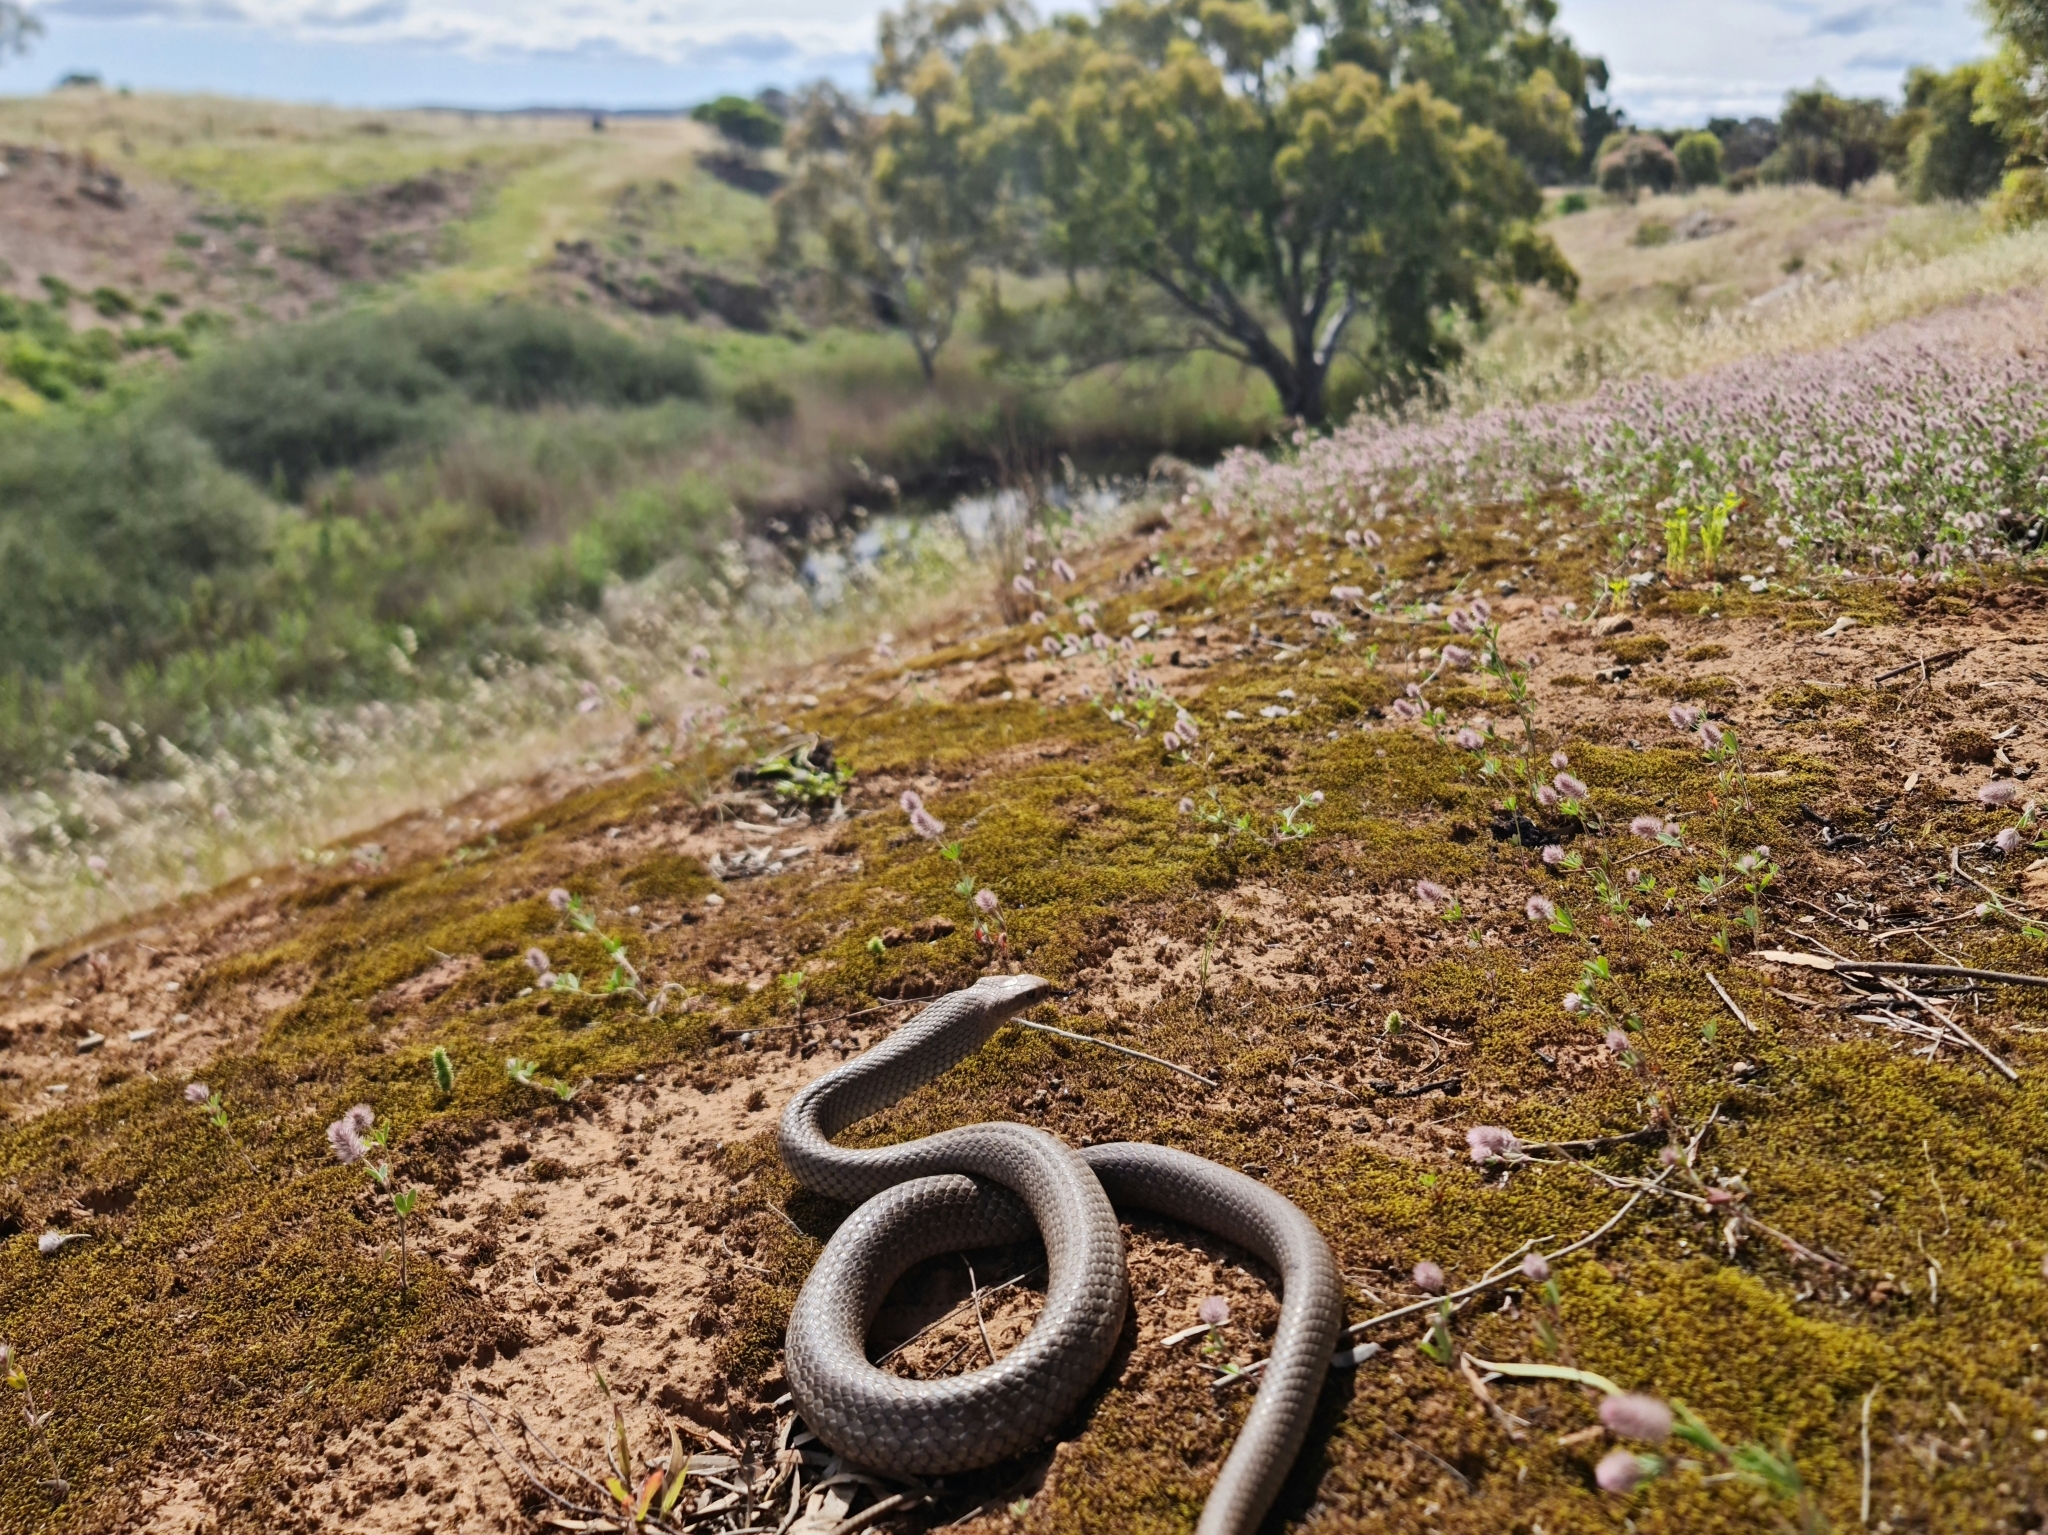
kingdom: Animalia
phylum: Chordata
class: Squamata
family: Elapidae
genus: Pseudonaja
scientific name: Pseudonaja textilis
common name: Eastern brown snake
